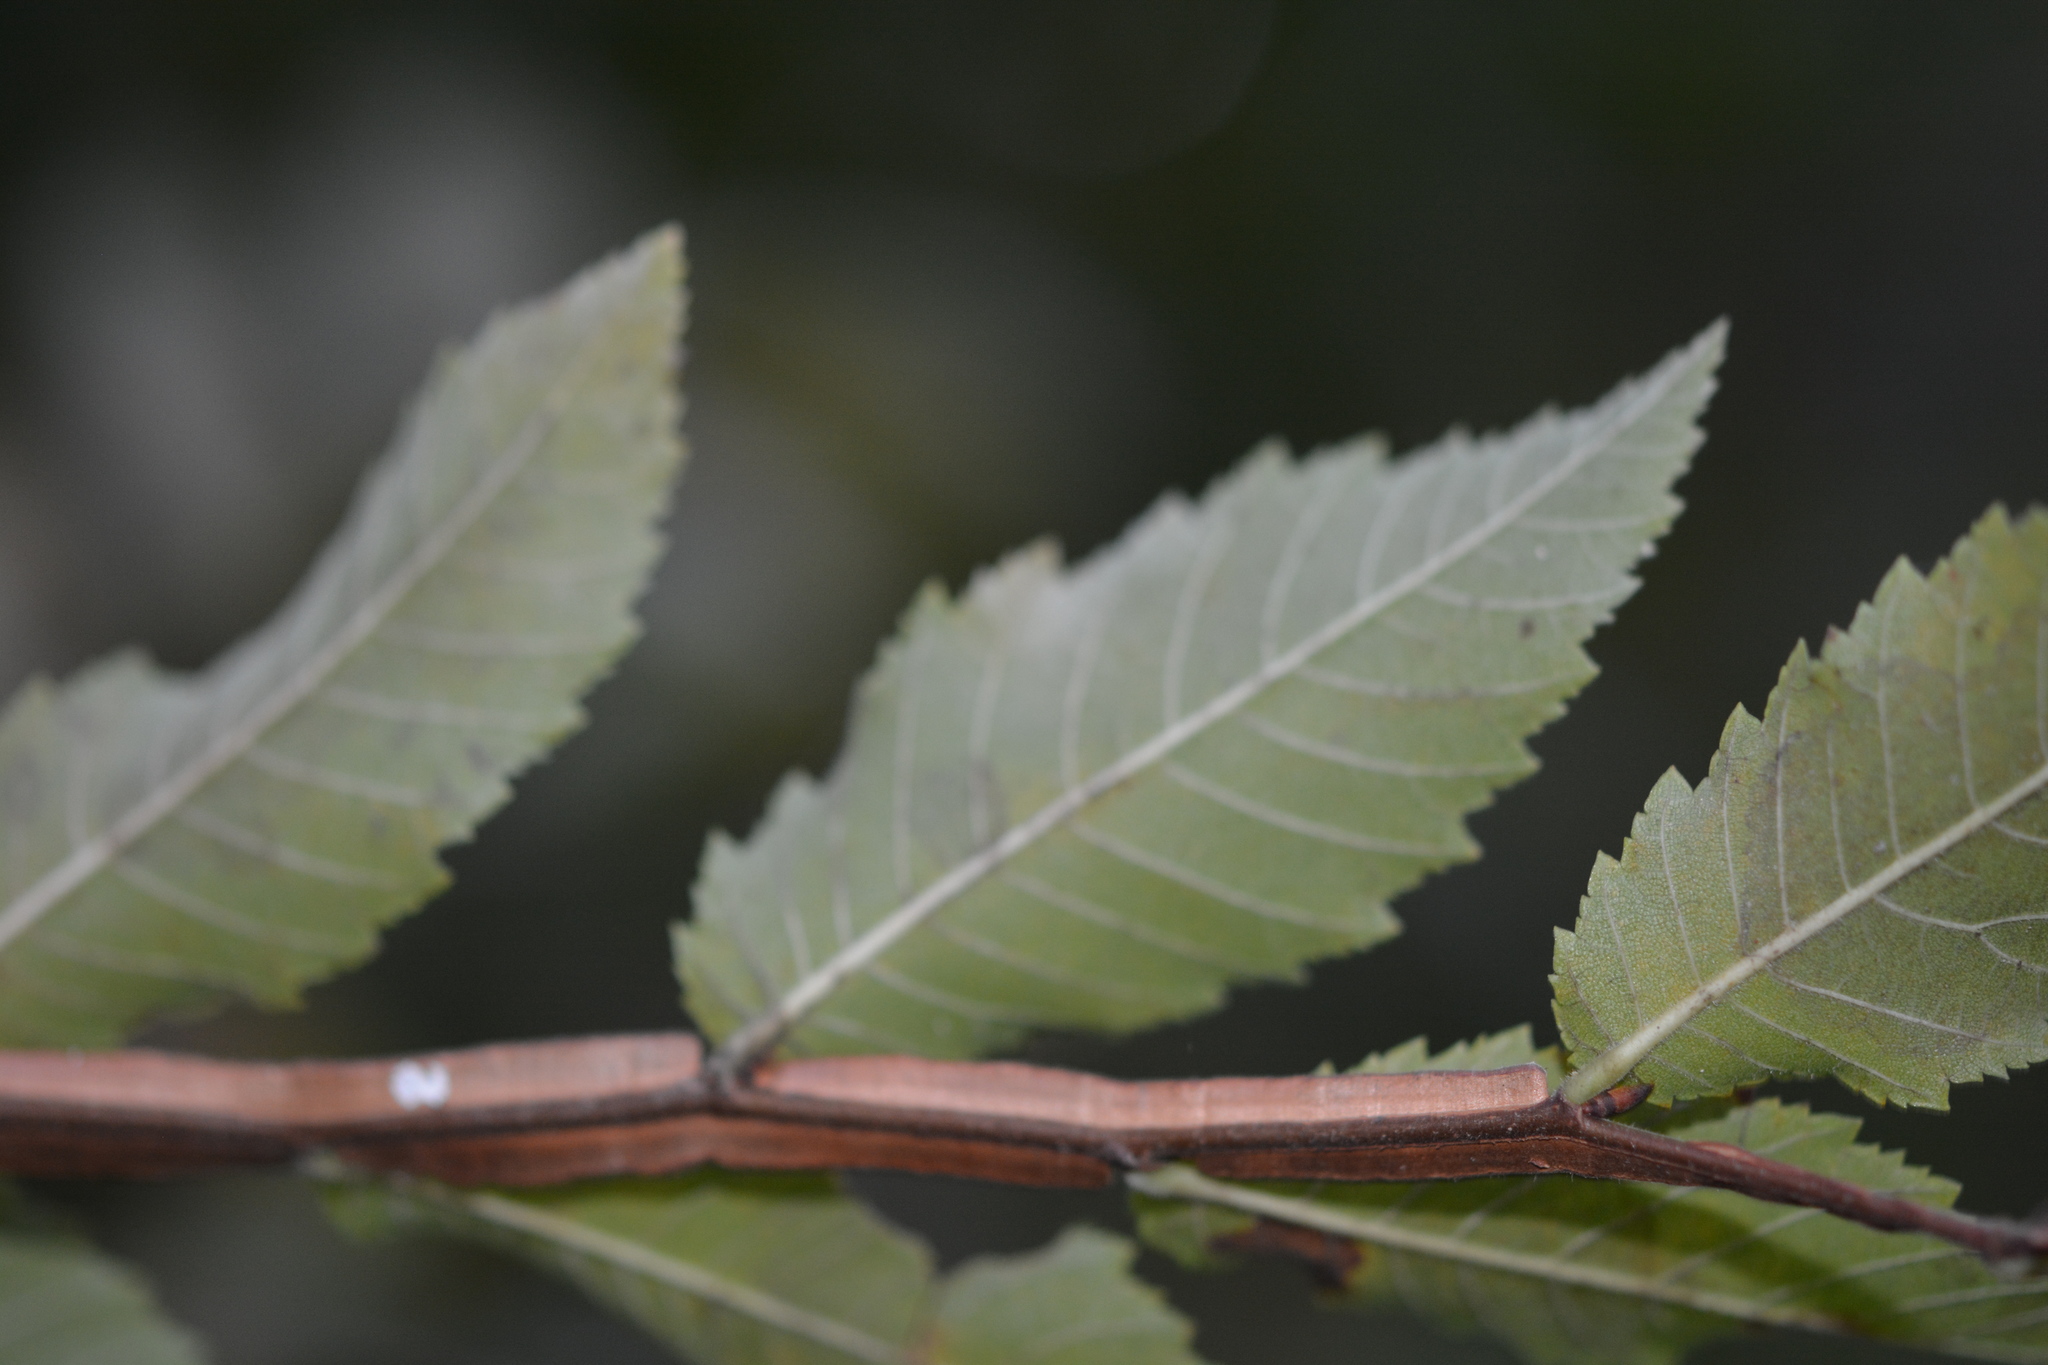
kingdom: Plantae
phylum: Tracheophyta
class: Magnoliopsida
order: Rosales
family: Ulmaceae
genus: Ulmus
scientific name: Ulmus alata
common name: Winged elm
